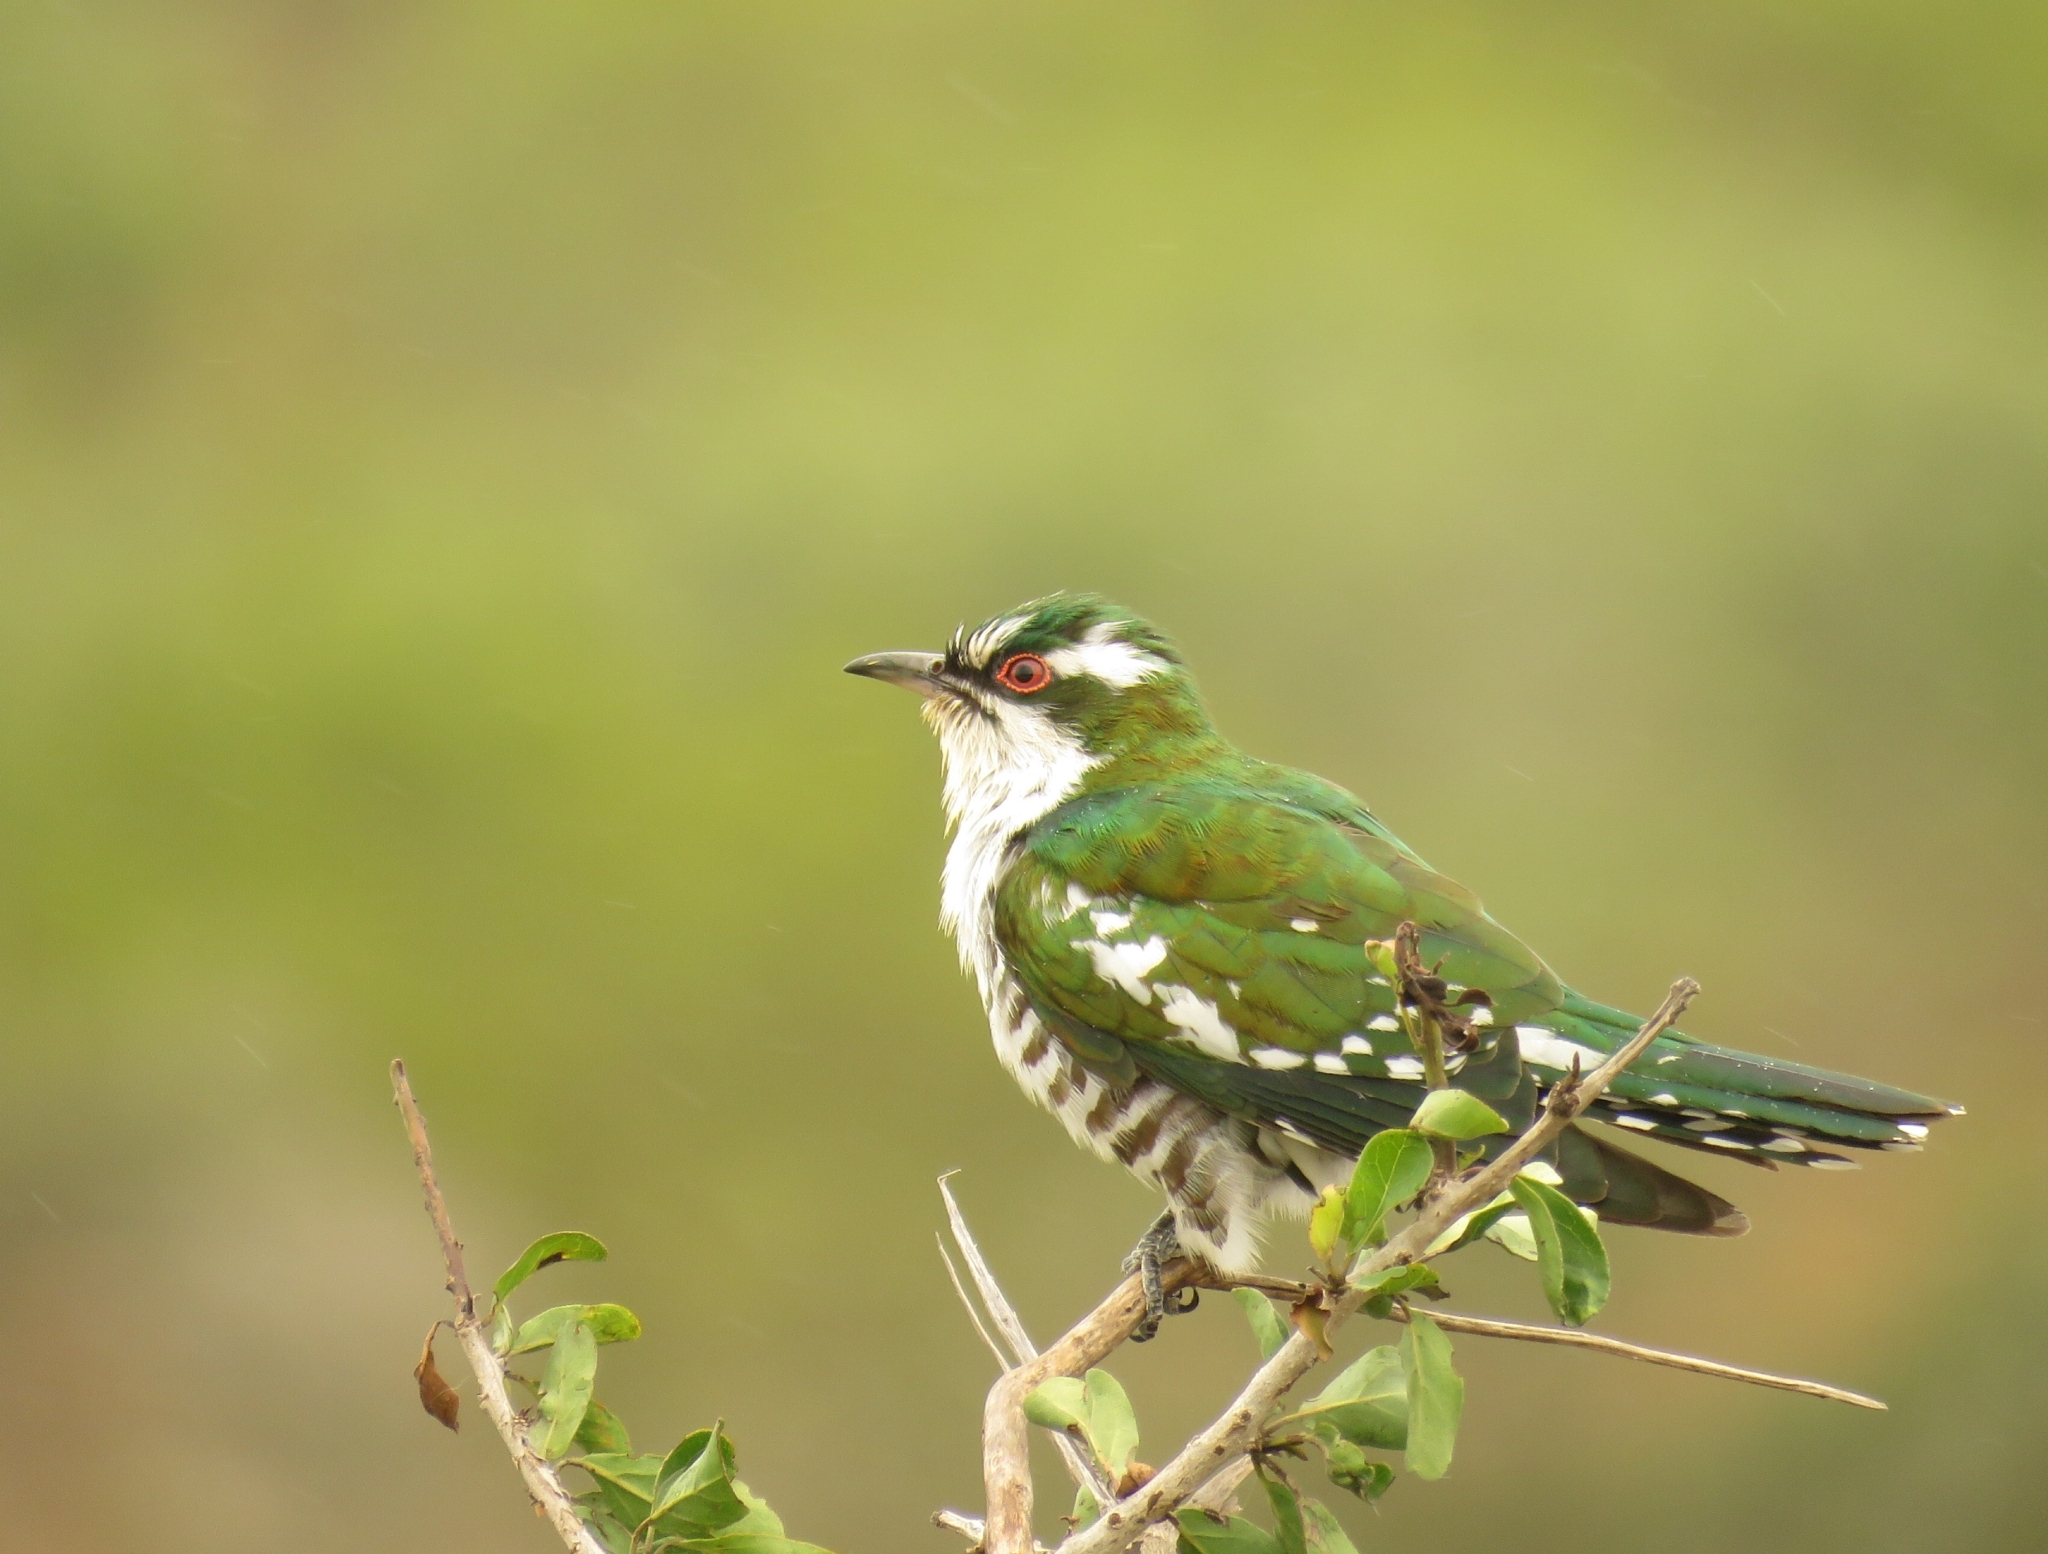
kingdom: Animalia
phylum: Chordata
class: Aves
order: Cuculiformes
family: Cuculidae
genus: Chrysococcyx
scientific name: Chrysococcyx caprius
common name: Diederik cuckoo
